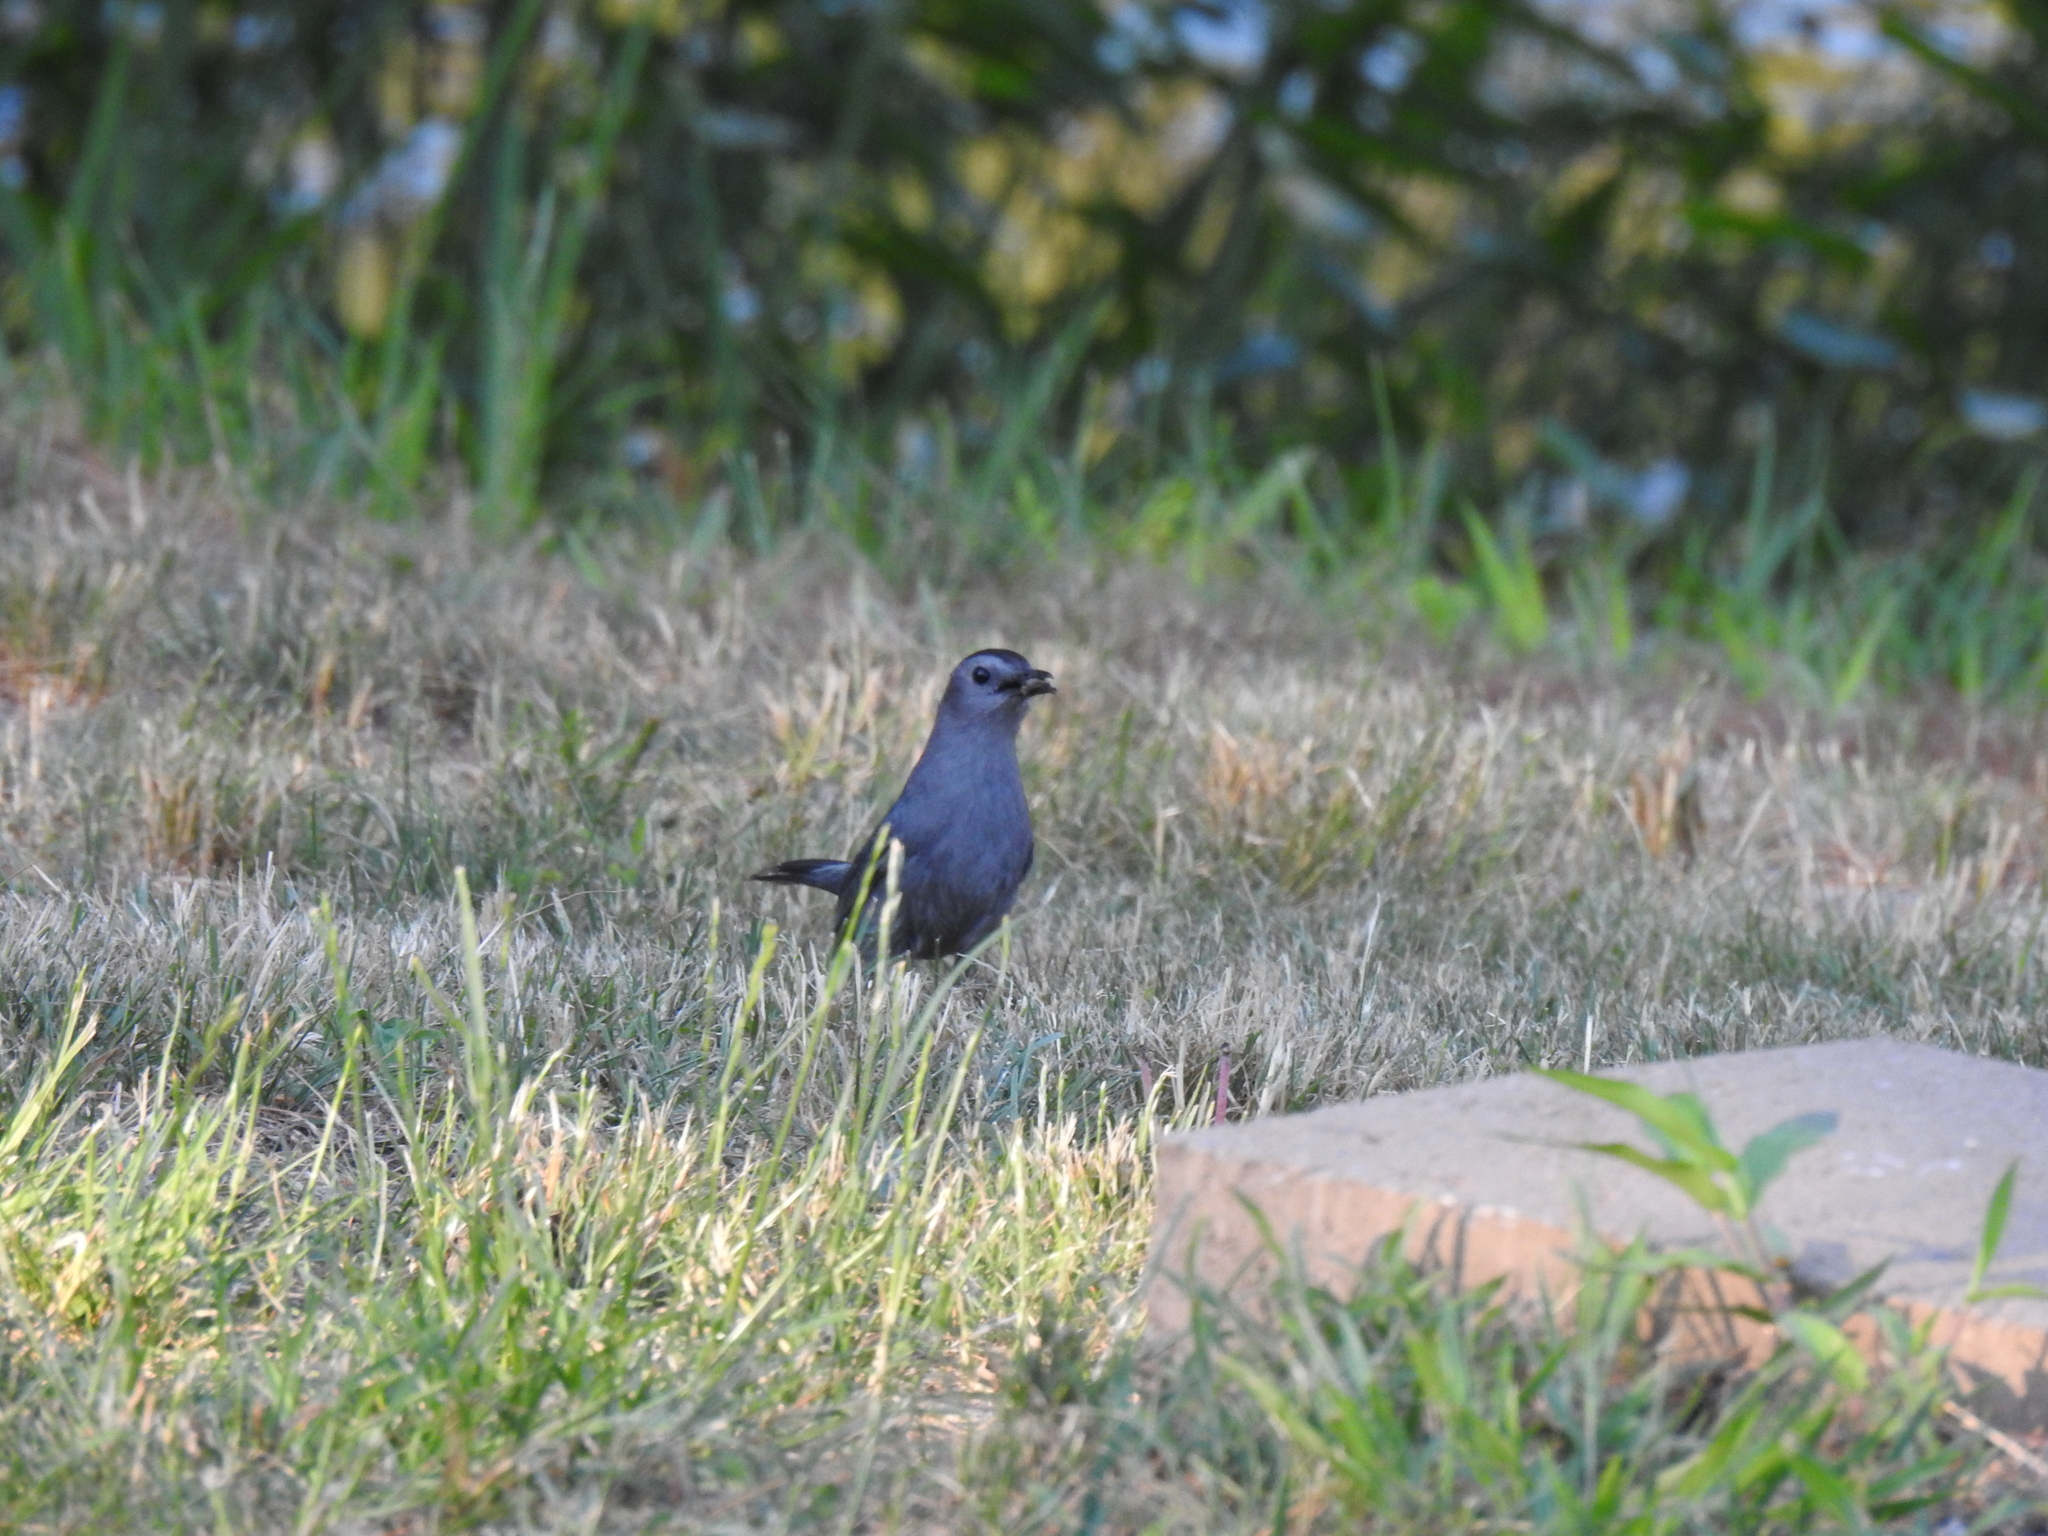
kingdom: Animalia
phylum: Chordata
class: Aves
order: Passeriformes
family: Mimidae
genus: Dumetella
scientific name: Dumetella carolinensis
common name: Gray catbird
